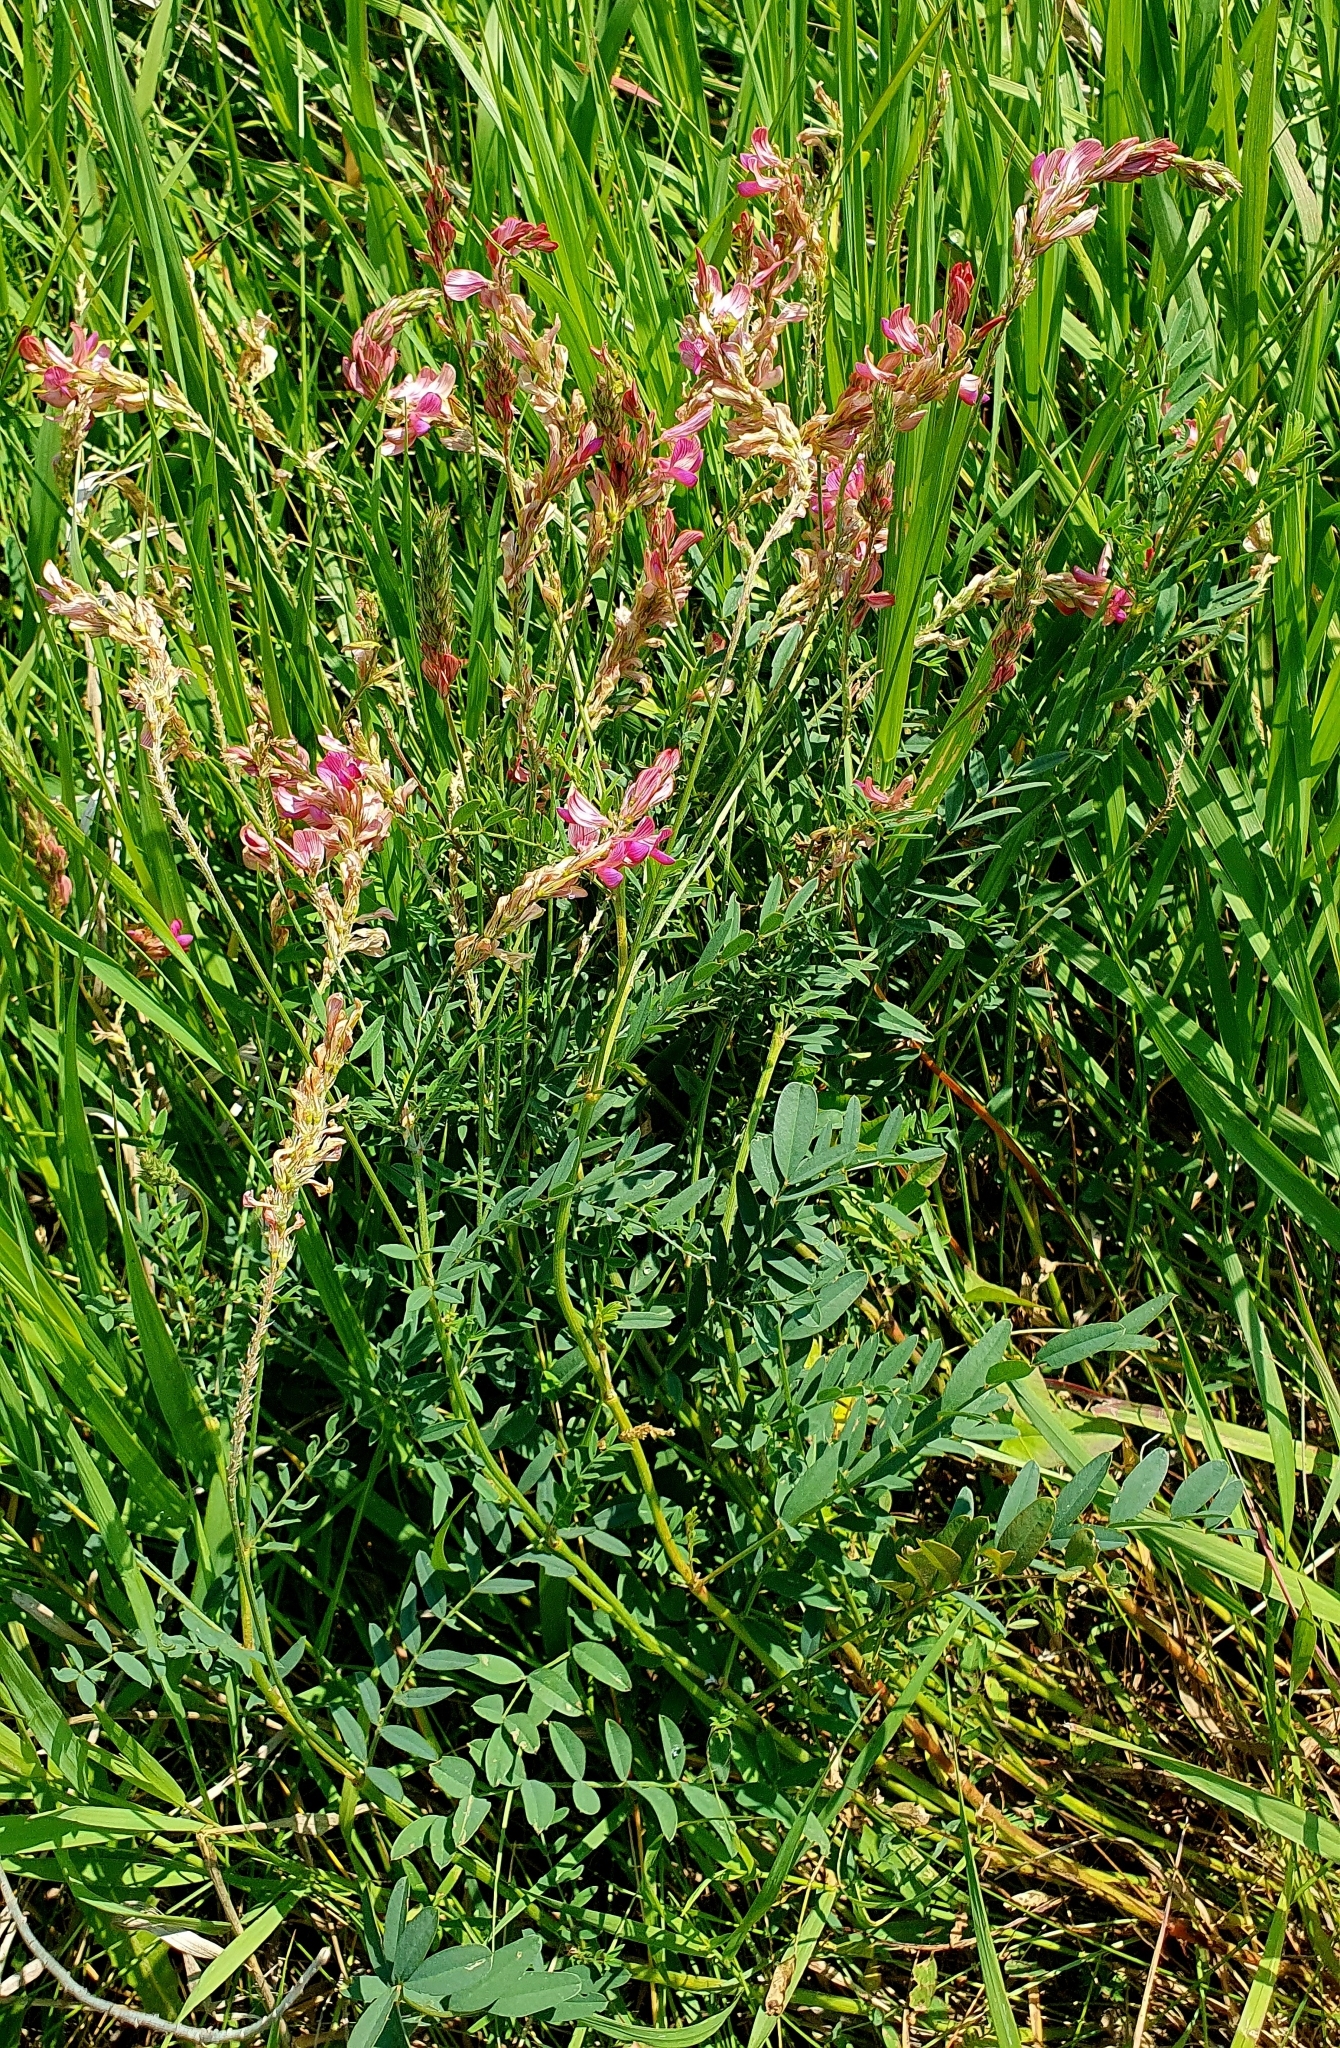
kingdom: Plantae
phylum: Tracheophyta
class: Magnoliopsida
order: Fabales
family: Fabaceae
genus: Onobrychis
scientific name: Onobrychis arenaria
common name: Sand esparcet
